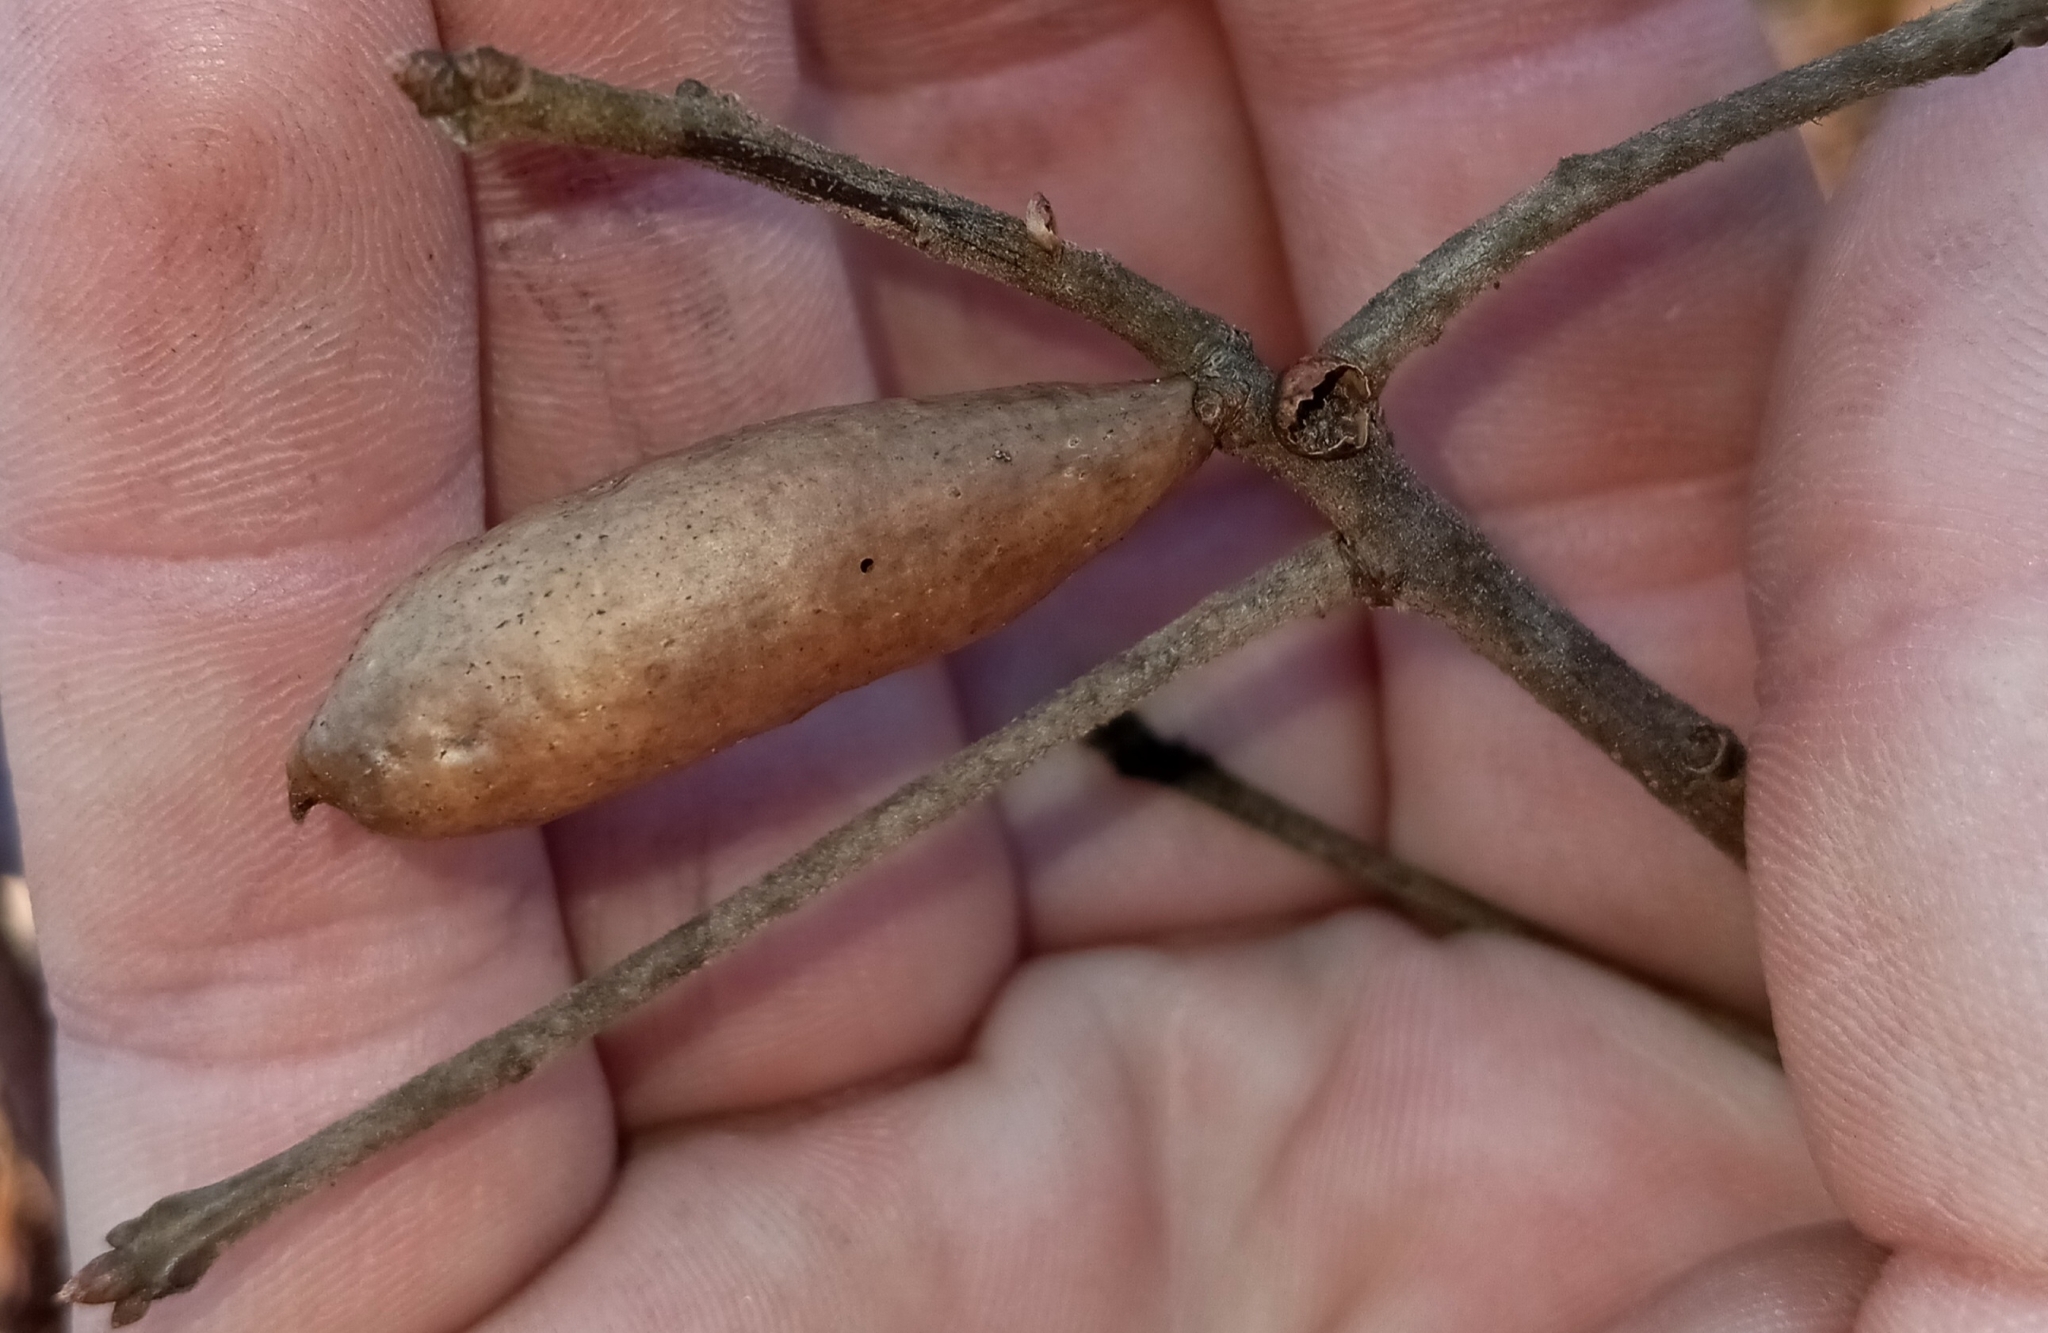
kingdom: Animalia
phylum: Arthropoda
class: Insecta
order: Hymenoptera
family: Cynipidae
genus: Amphibolips
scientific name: Amphibolips
